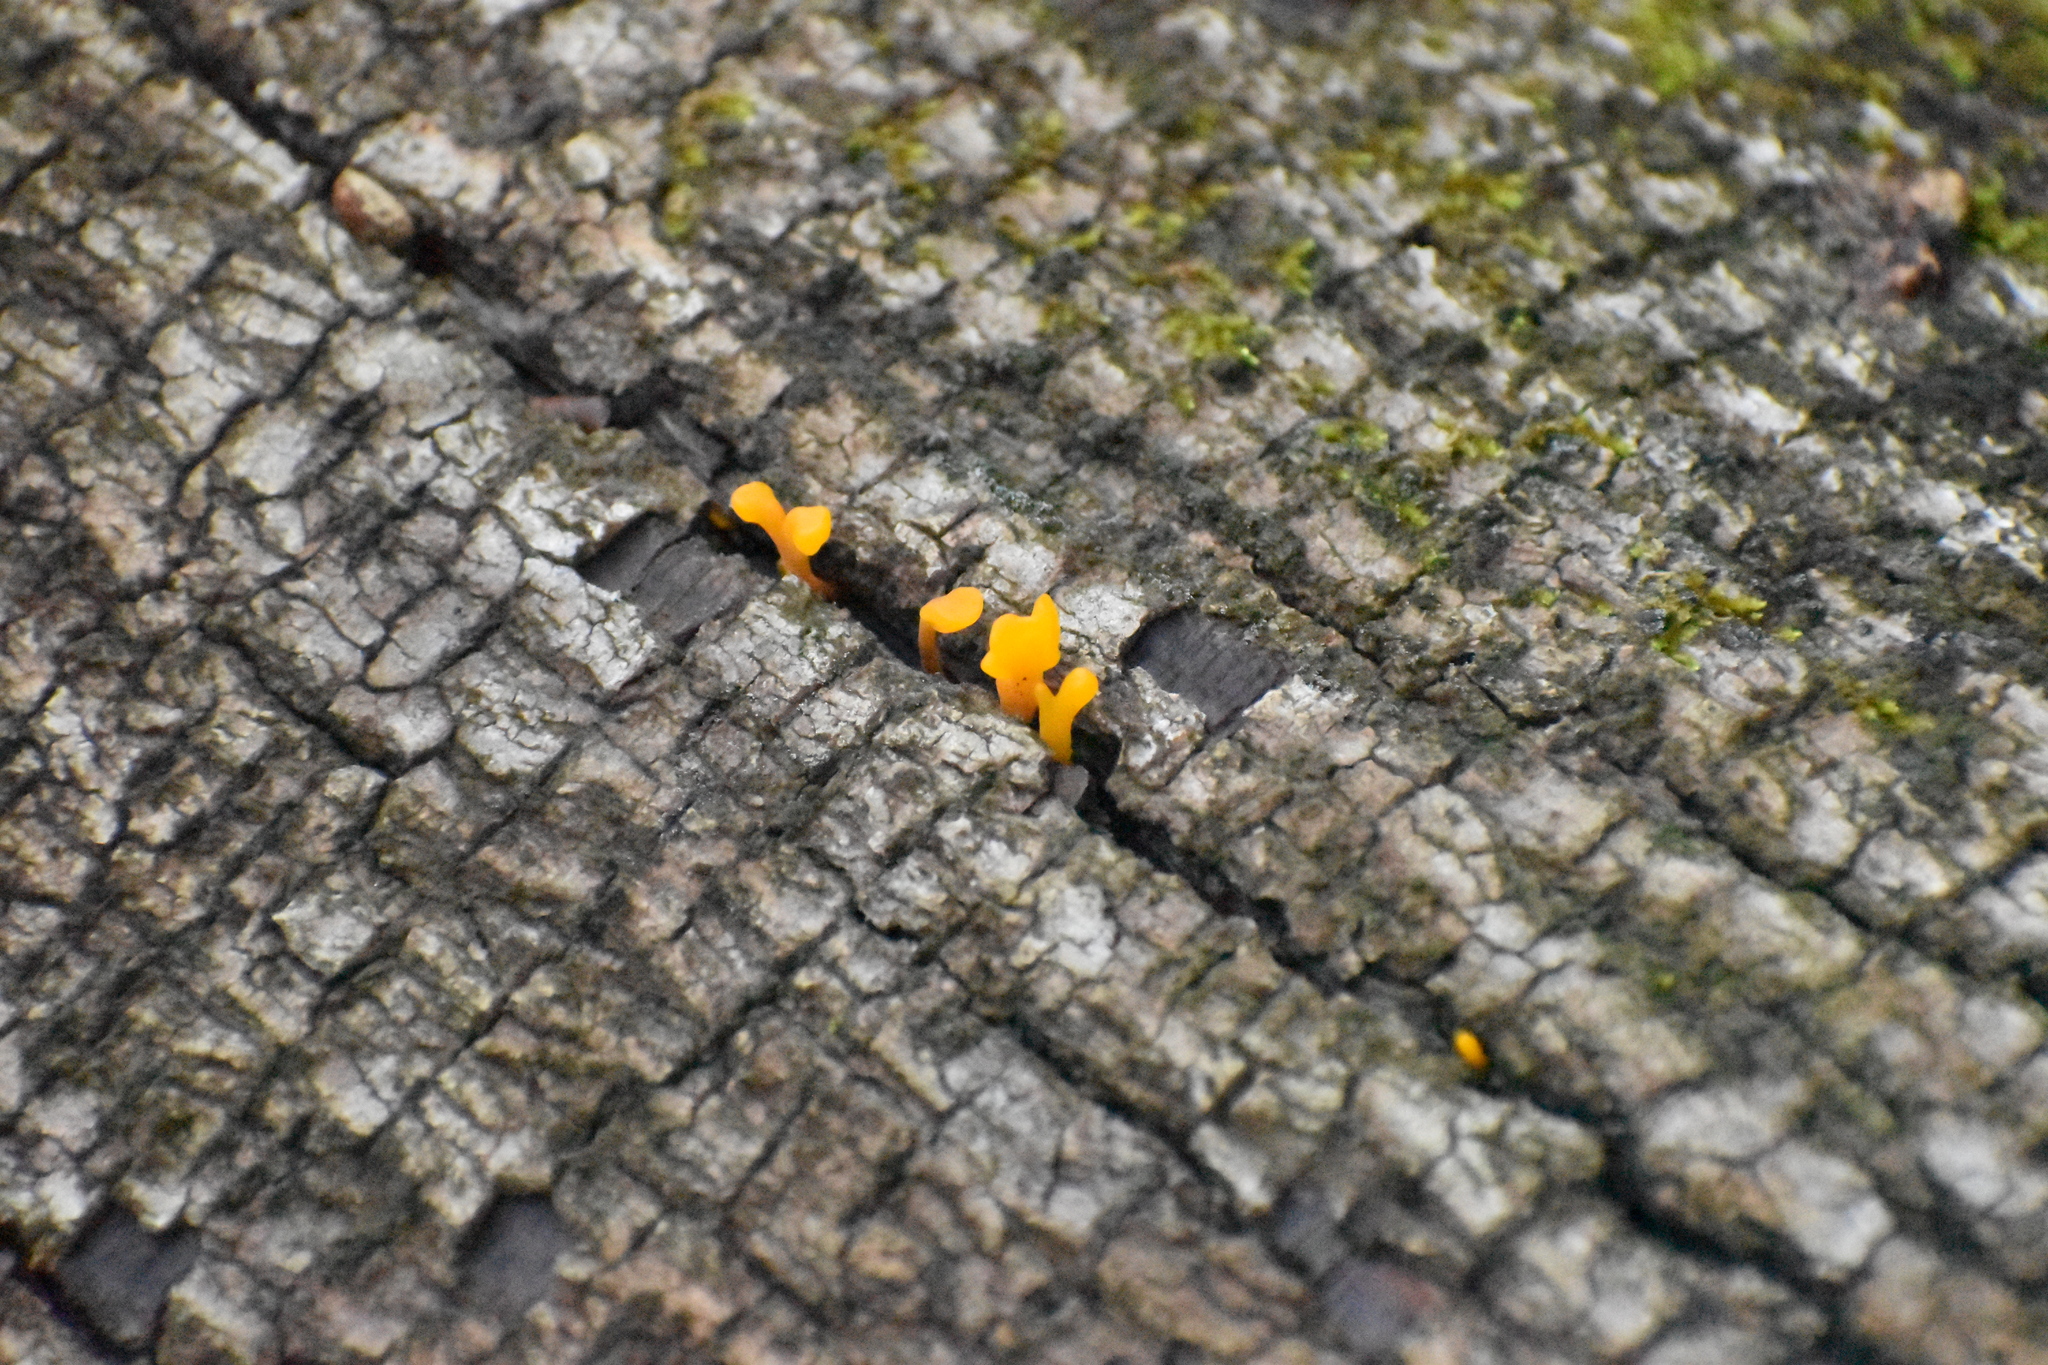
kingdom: Fungi
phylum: Basidiomycota
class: Dacrymycetes
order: Dacrymycetales
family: Dacrymycetaceae
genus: Dacrymyces
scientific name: Dacrymyces spathularius
